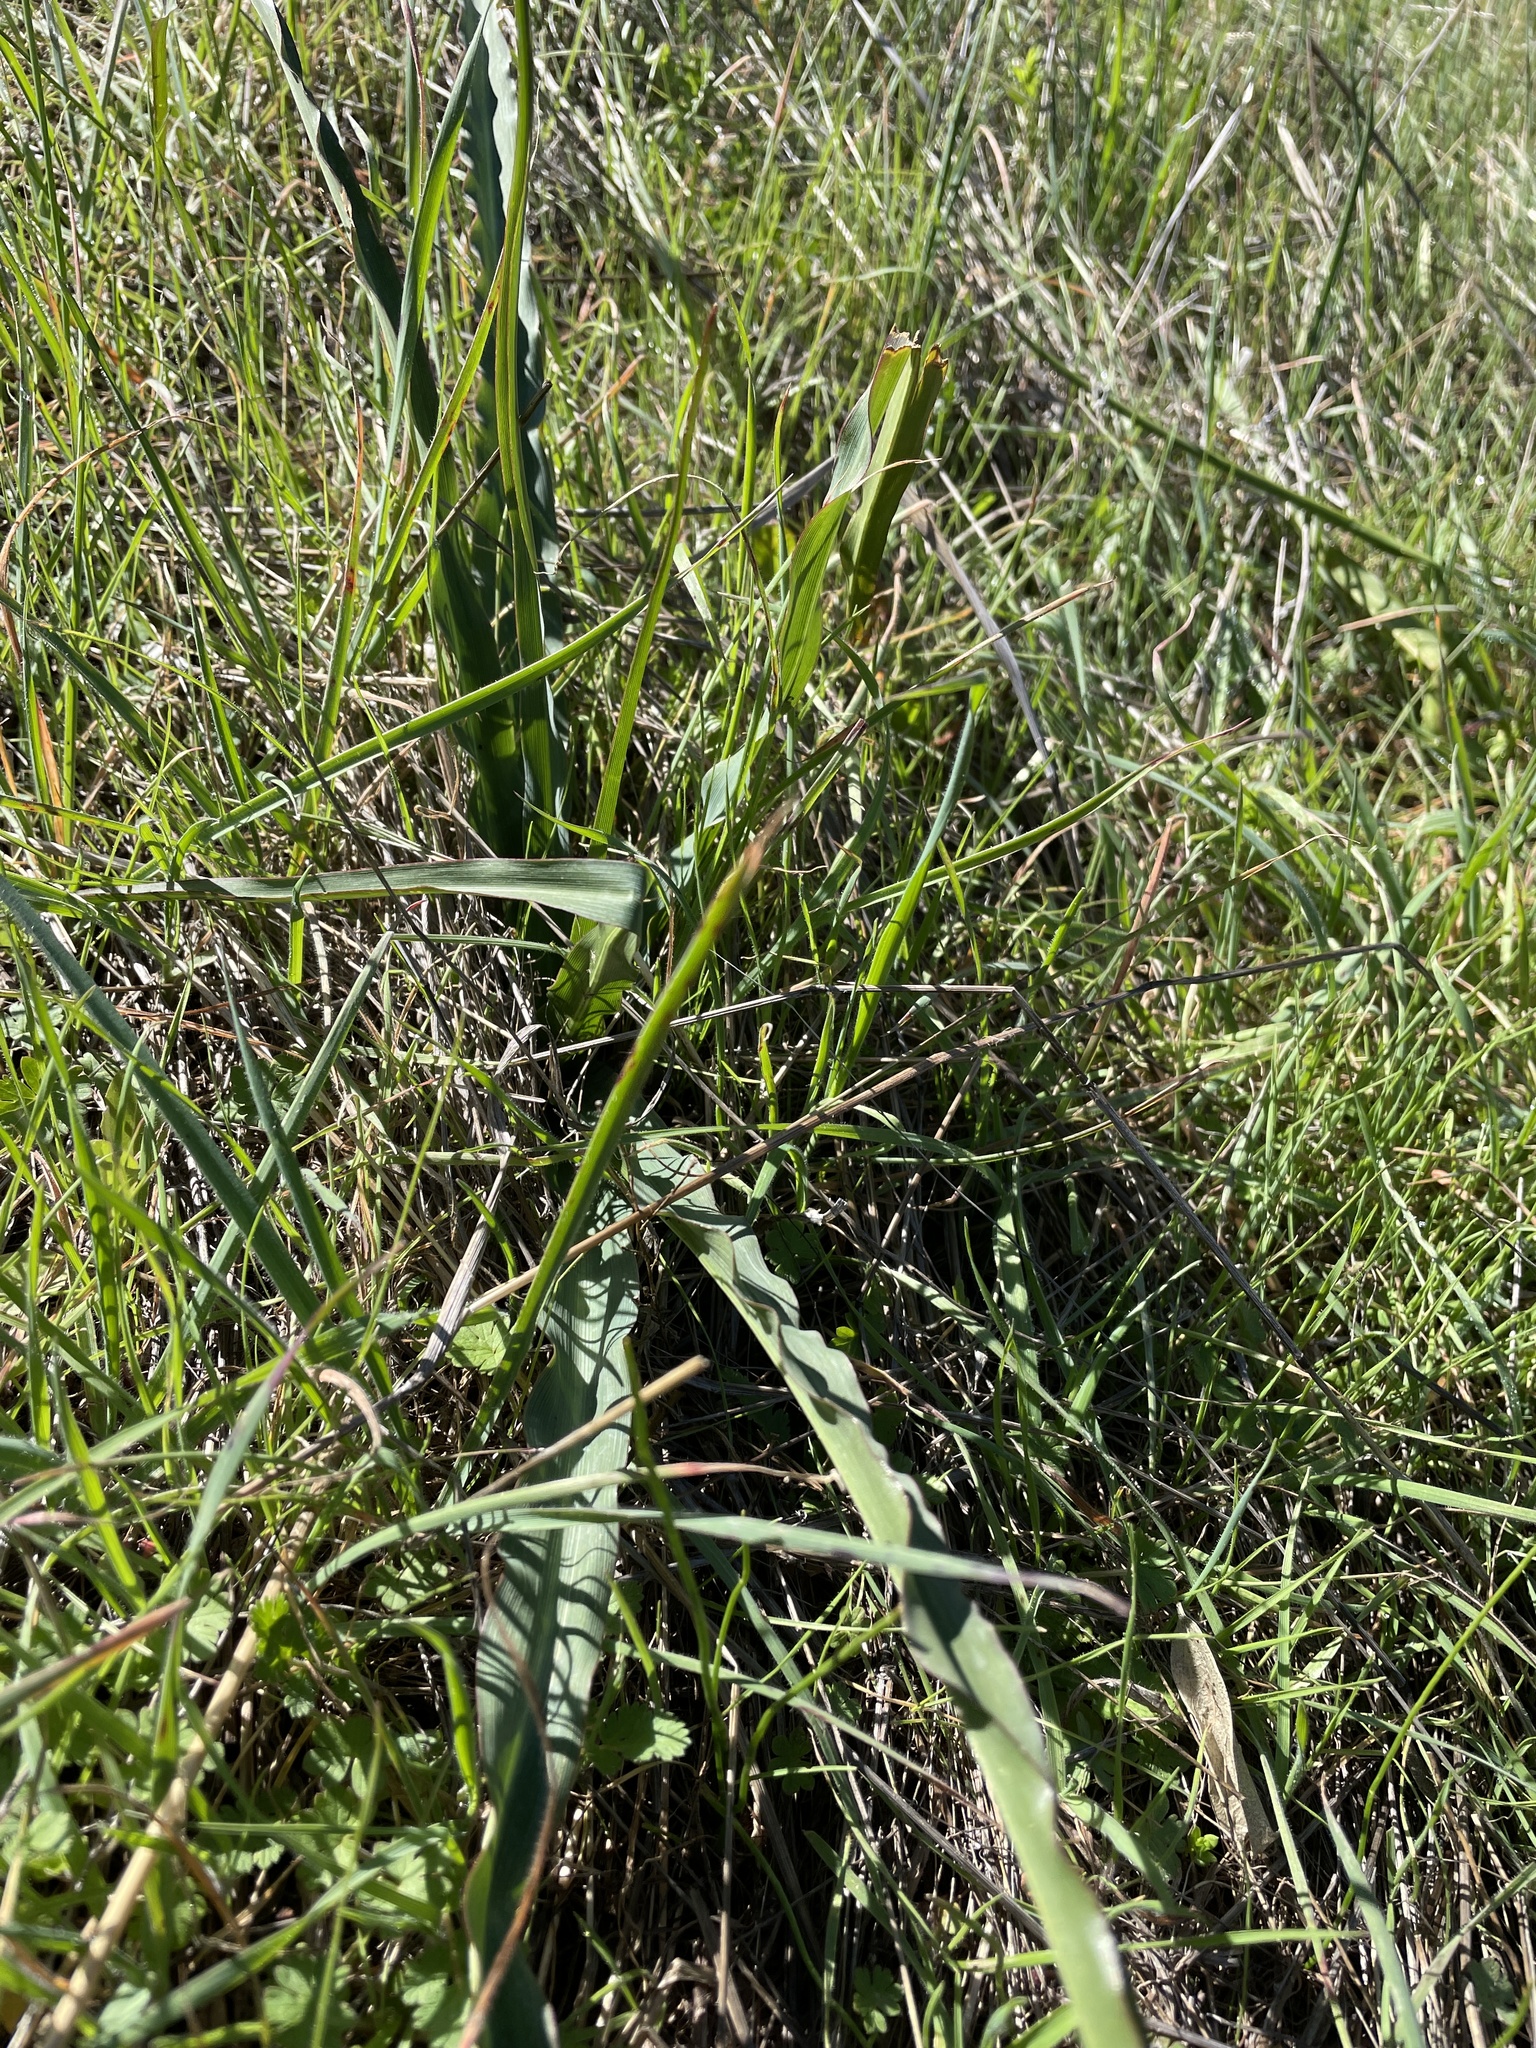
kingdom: Plantae
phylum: Tracheophyta
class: Liliopsida
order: Asparagales
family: Asparagaceae
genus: Chlorogalum
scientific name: Chlorogalum pomeridianum
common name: Amole
